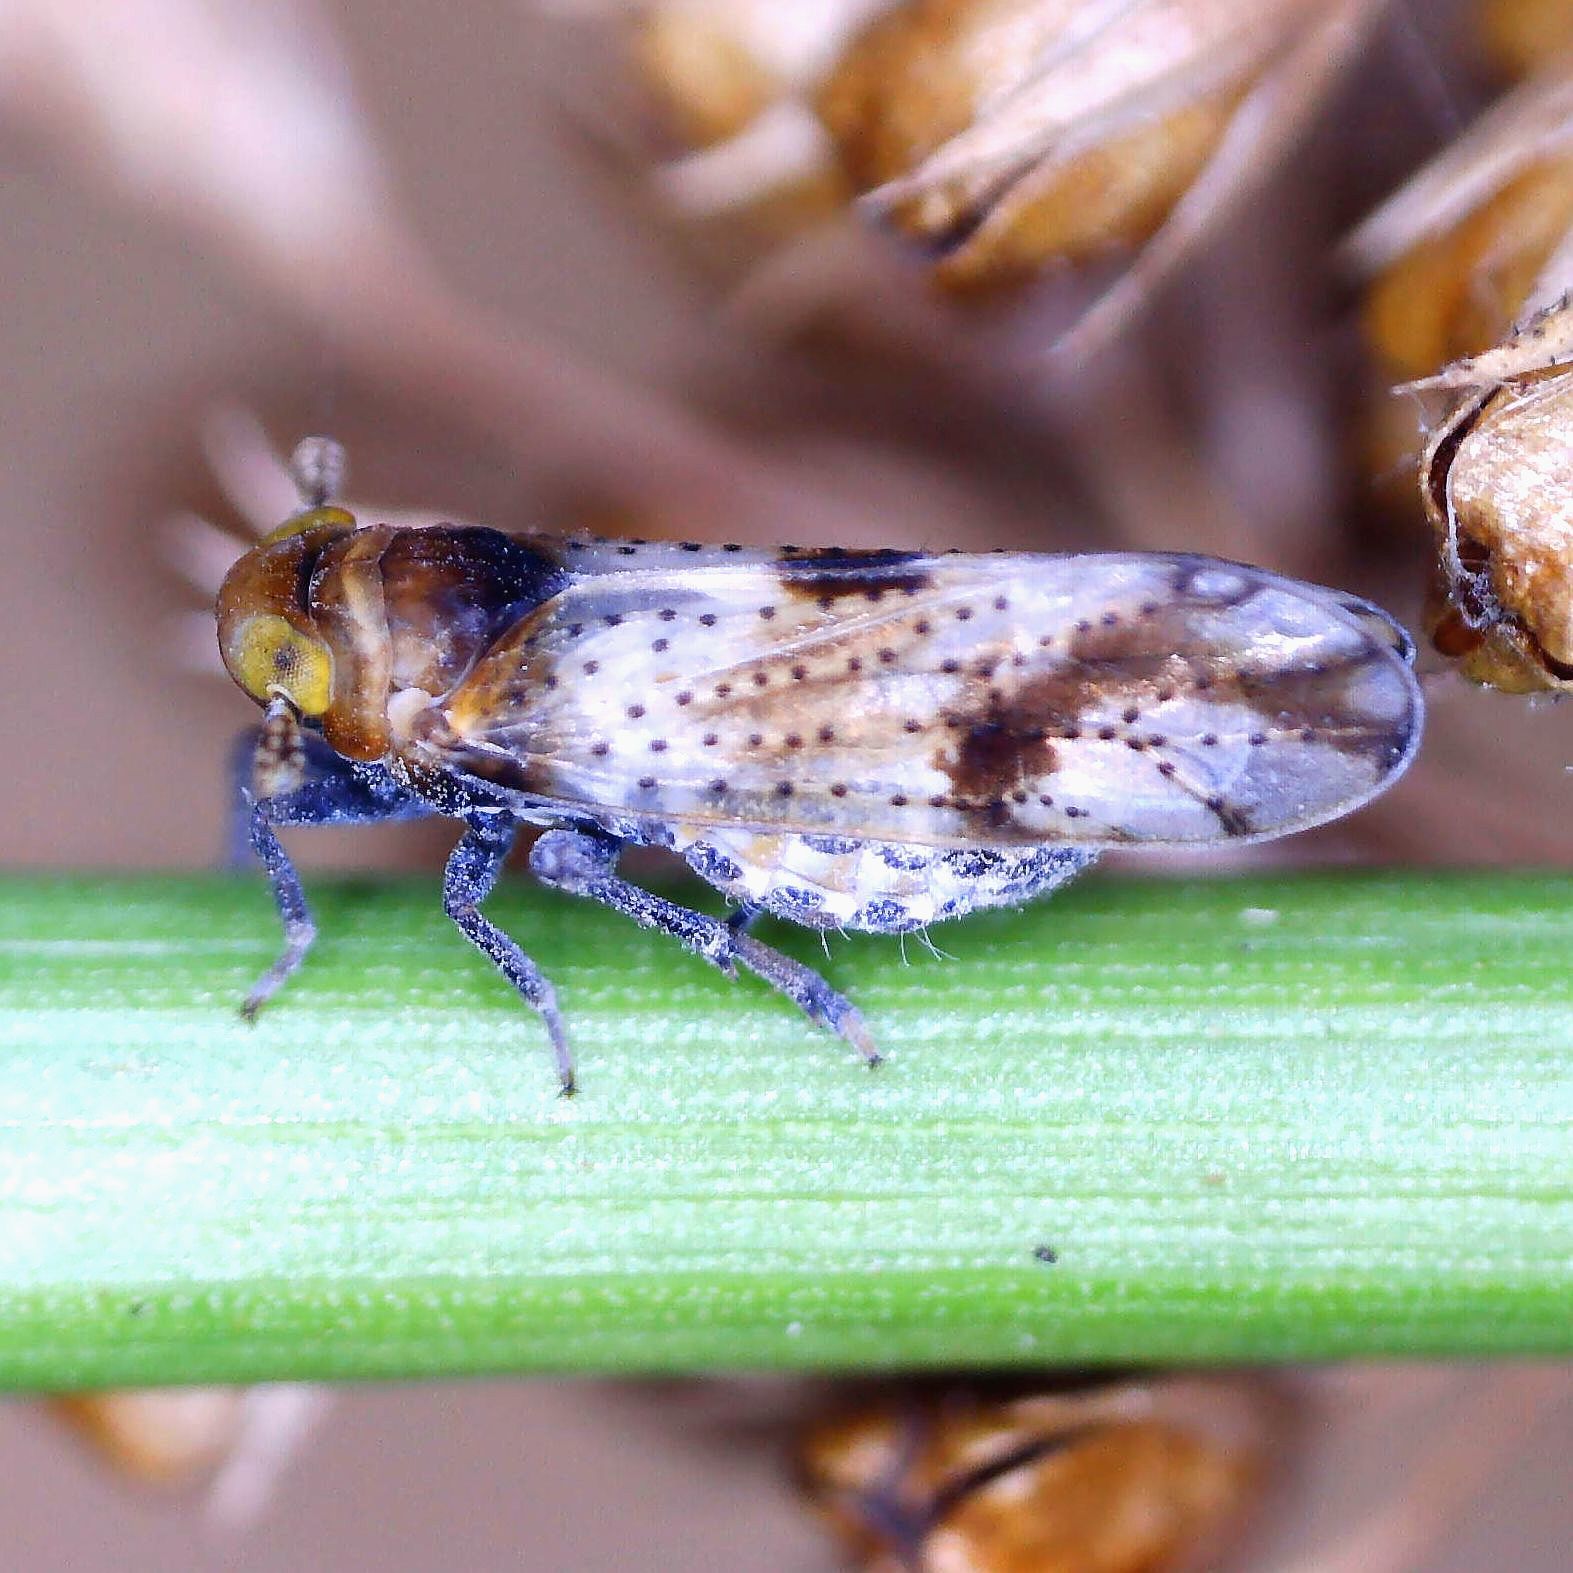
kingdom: Animalia
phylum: Arthropoda
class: Insecta
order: Hemiptera
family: Delphacidae
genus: Conomelus
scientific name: Conomelus anceps
